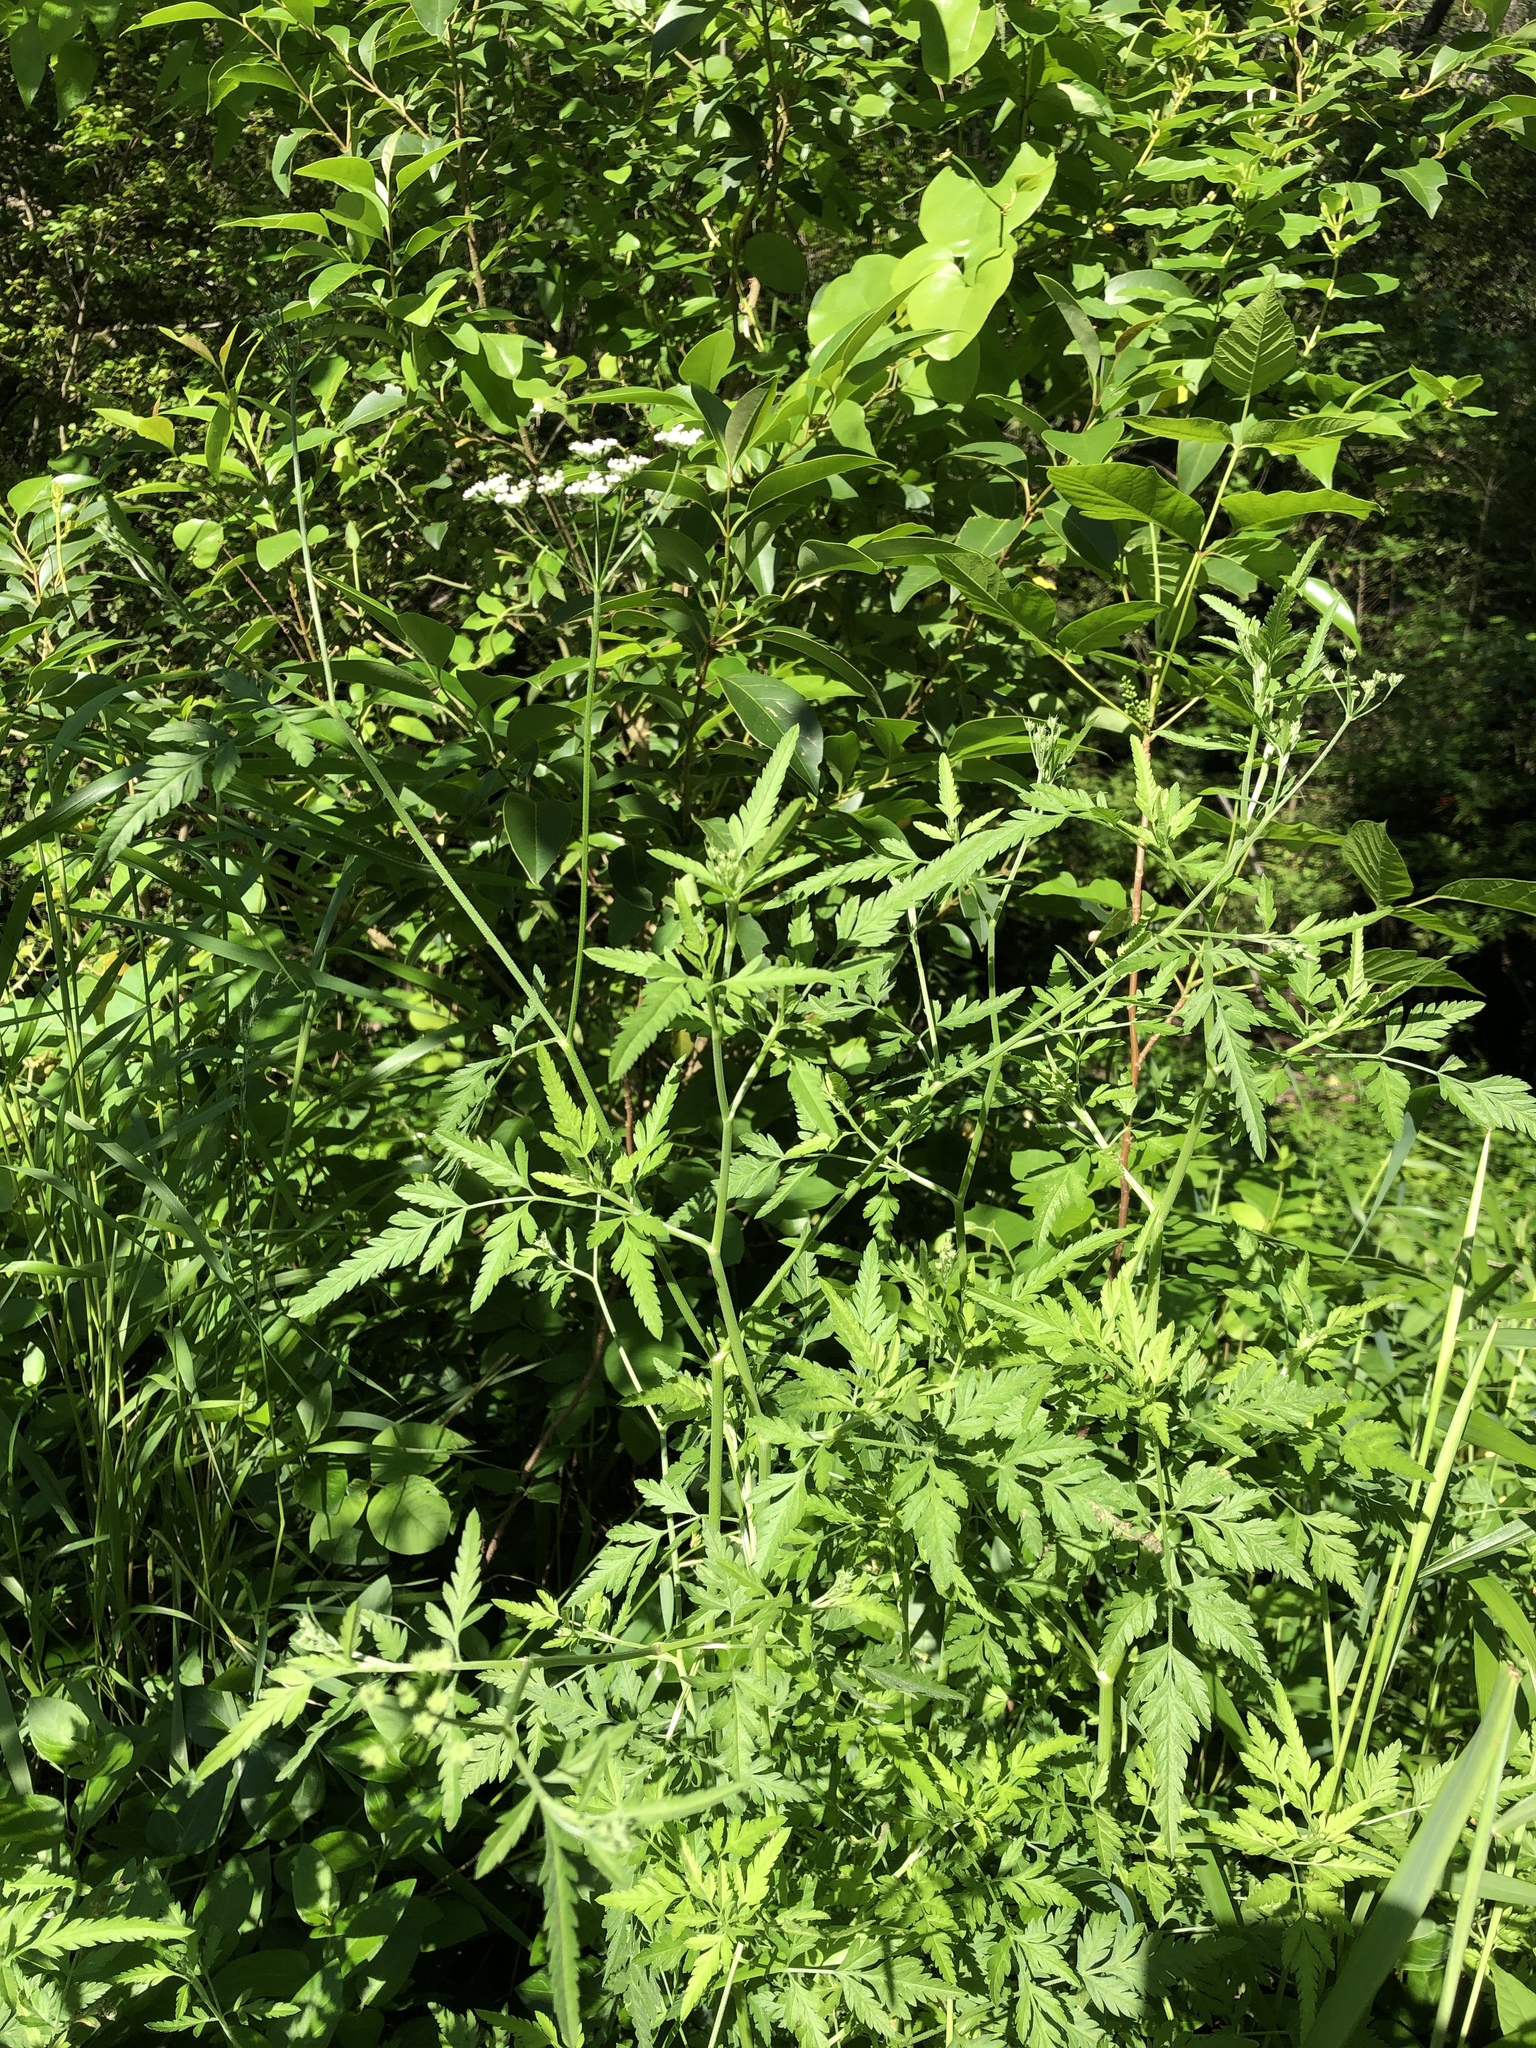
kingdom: Plantae
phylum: Tracheophyta
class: Magnoliopsida
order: Apiales
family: Apiaceae
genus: Torilis
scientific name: Torilis arvensis
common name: Spreading hedge-parsley
